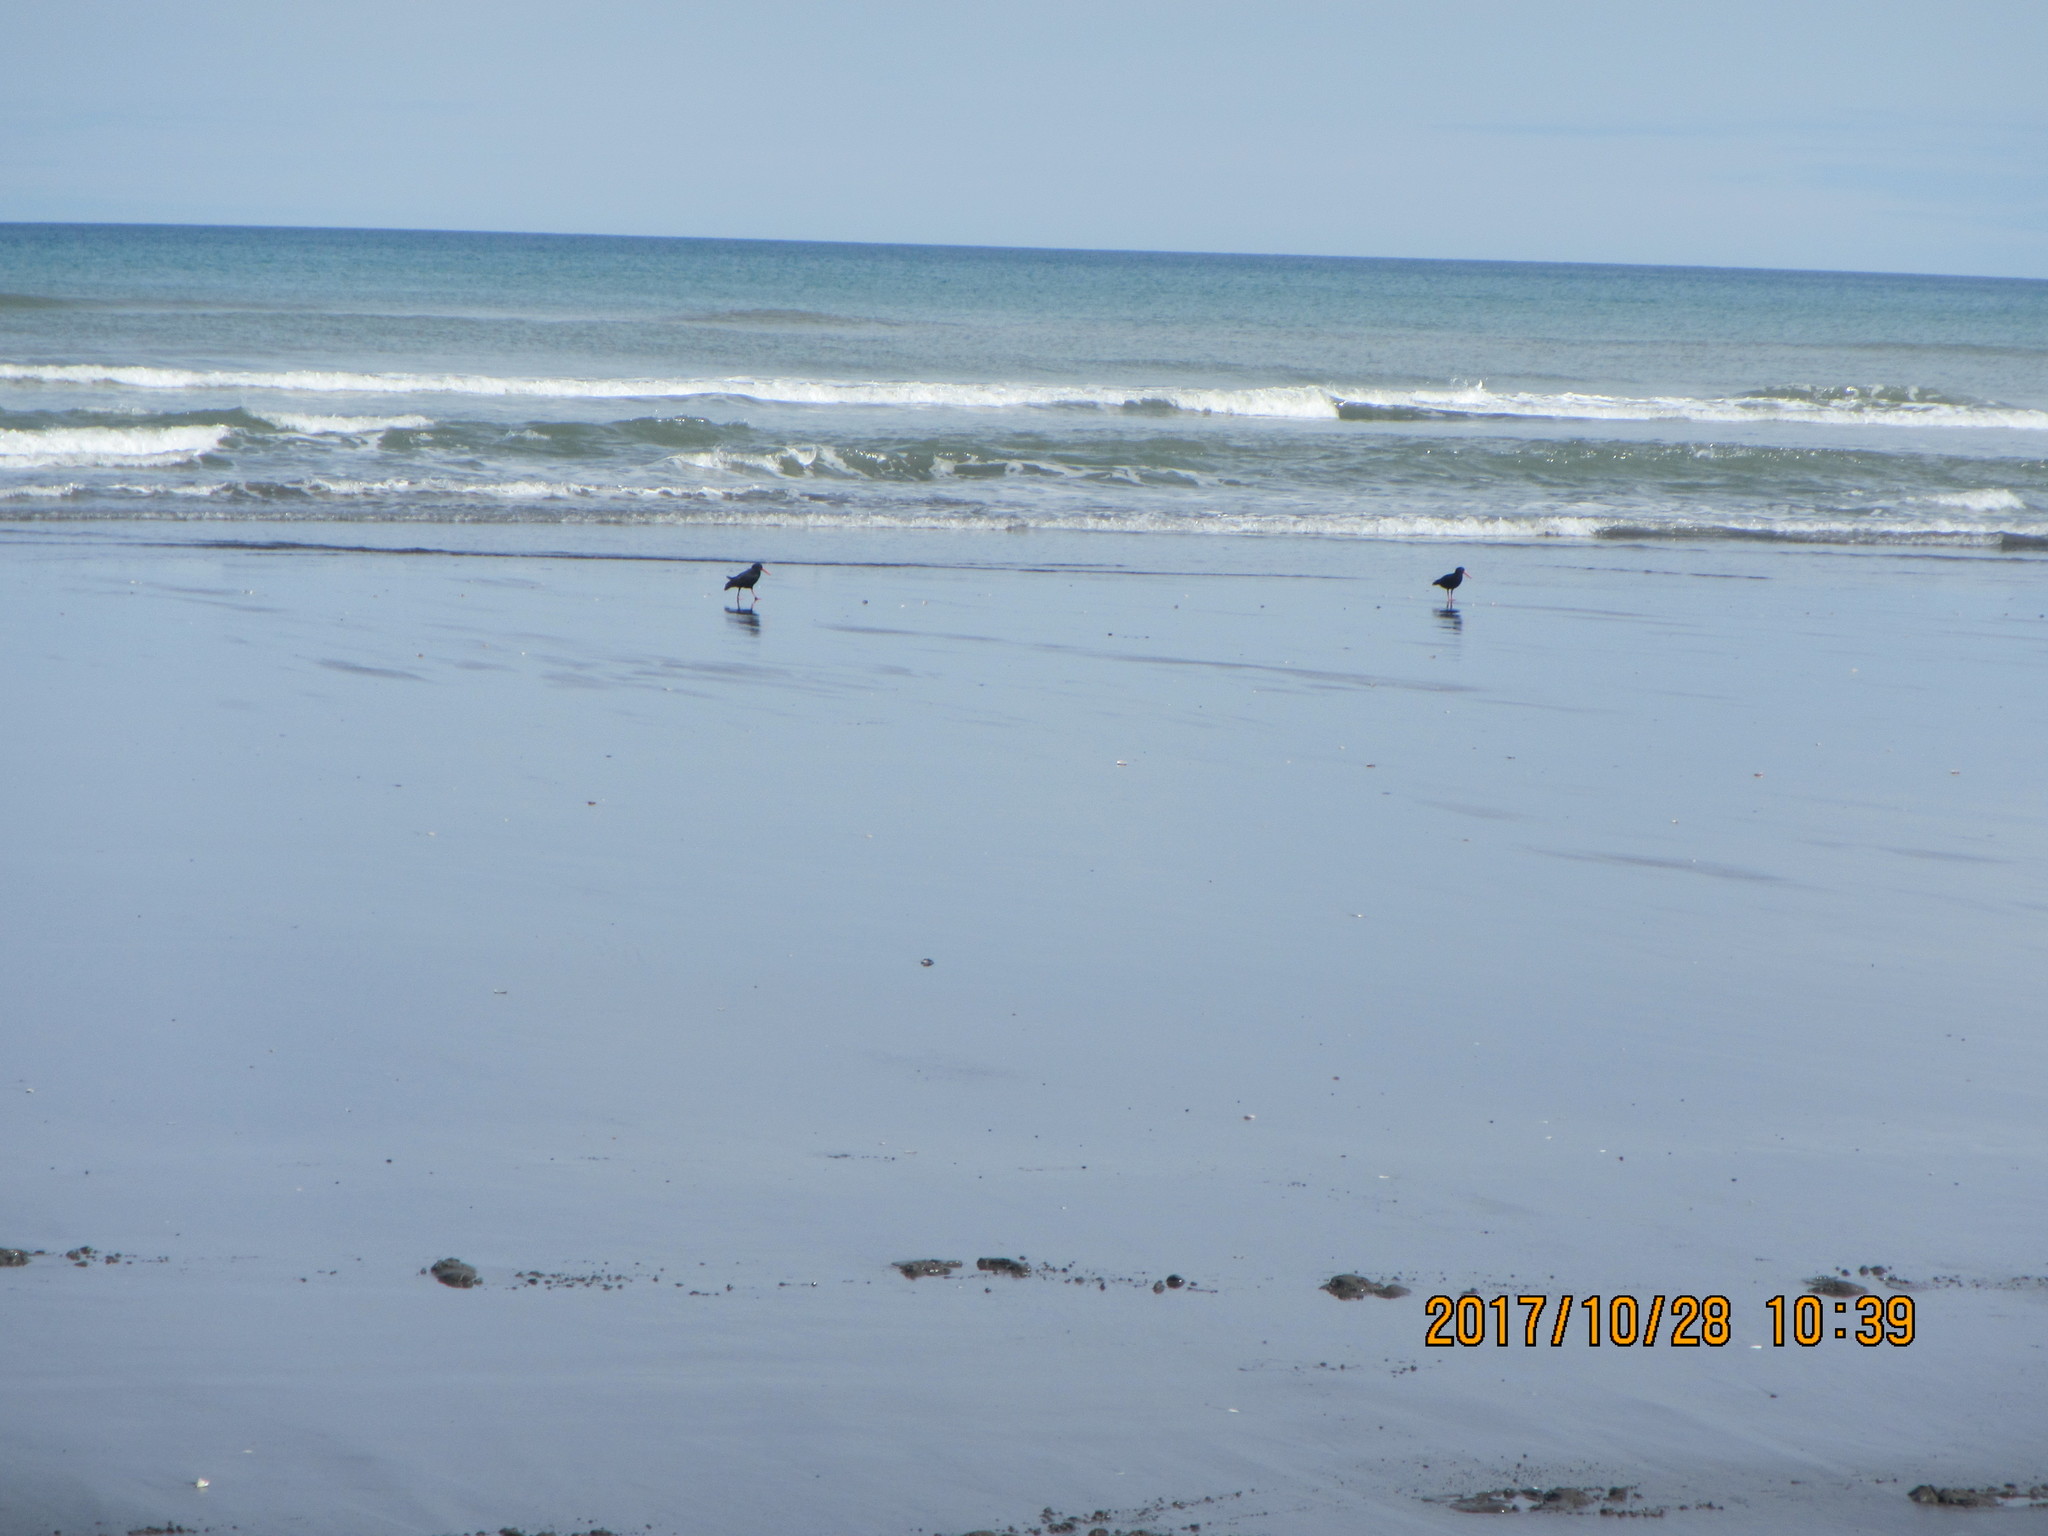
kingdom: Animalia
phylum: Chordata
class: Aves
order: Charadriiformes
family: Haematopodidae
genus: Haematopus
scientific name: Haematopus unicolor
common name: Variable oystercatcher
